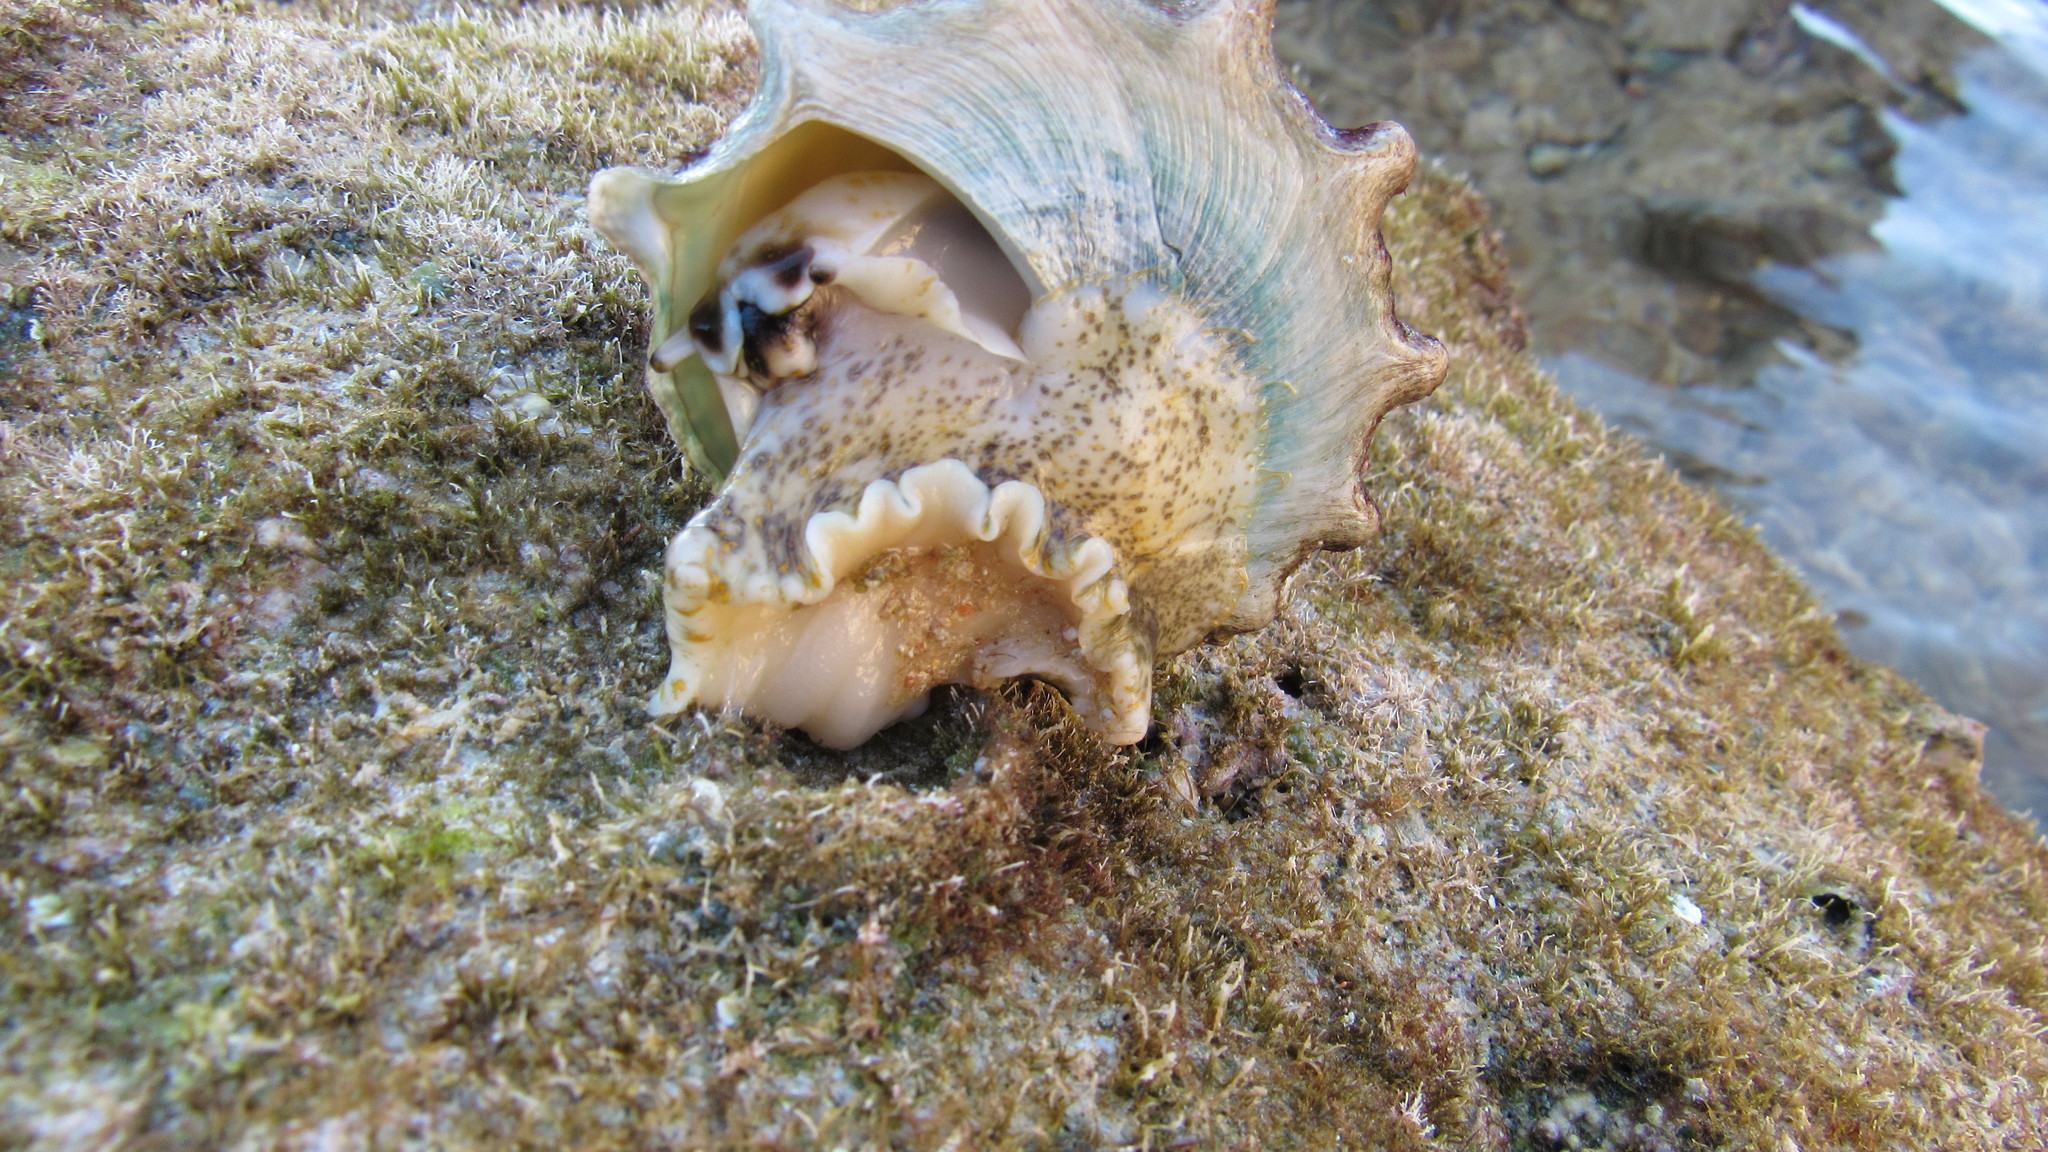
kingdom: Animalia
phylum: Mollusca
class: Gastropoda
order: Trochida
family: Tegulidae
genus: Tectus
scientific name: Tectus dentatus
